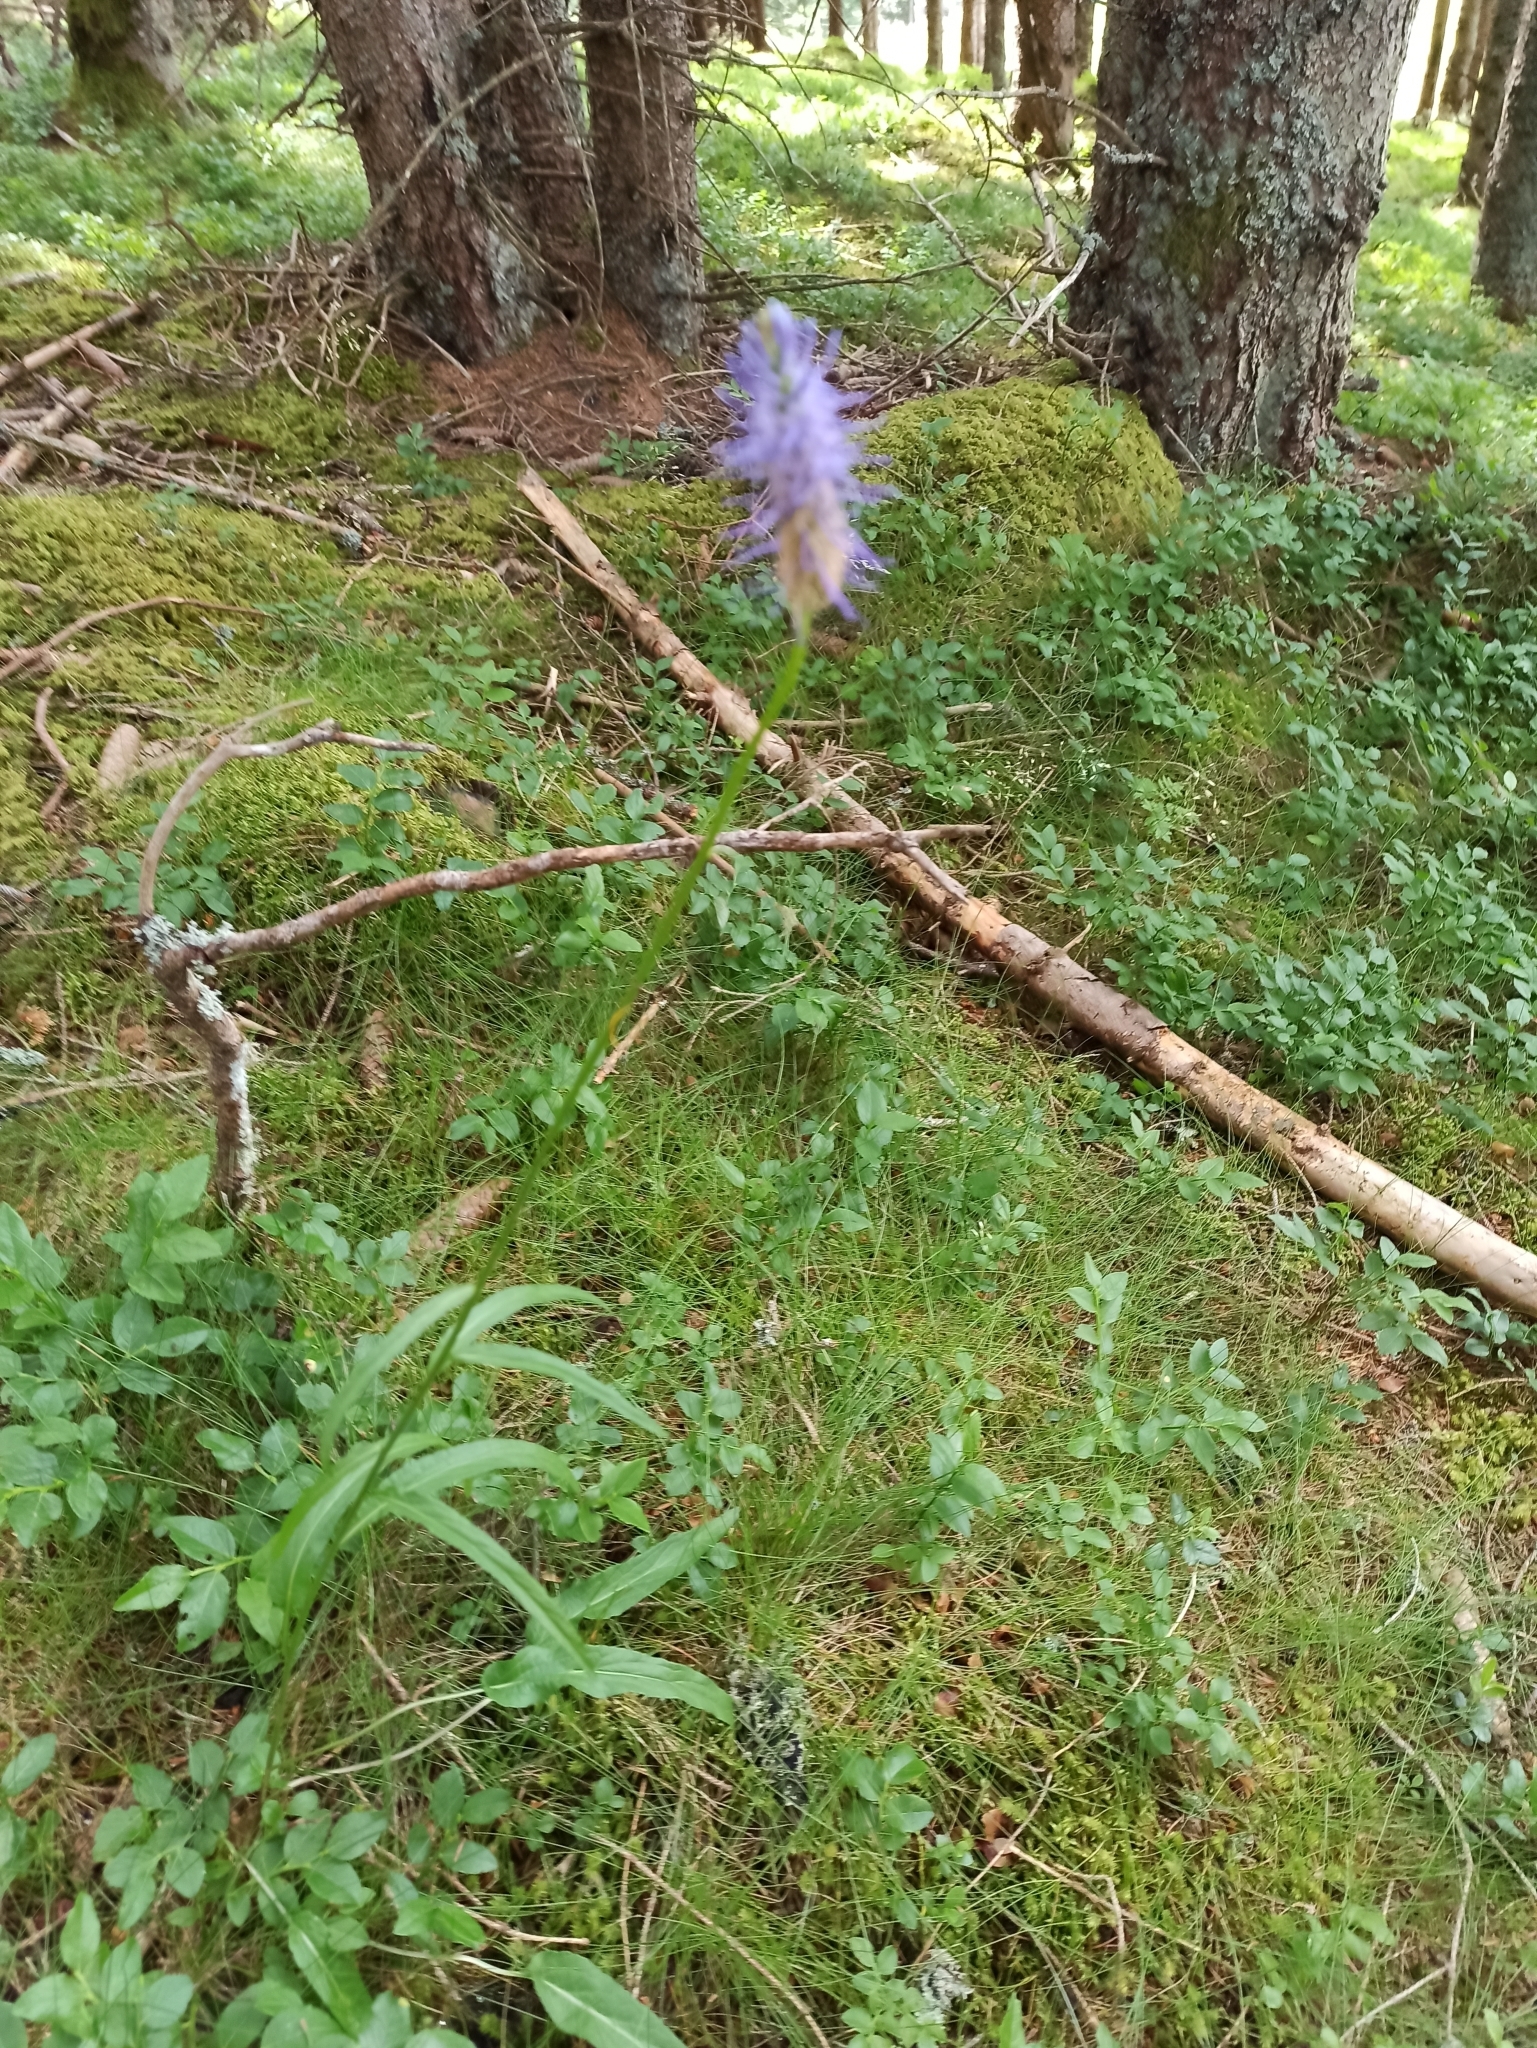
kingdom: Plantae
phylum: Tracheophyta
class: Magnoliopsida
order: Asterales
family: Campanulaceae
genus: Phyteuma
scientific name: Phyteuma persicifolium
